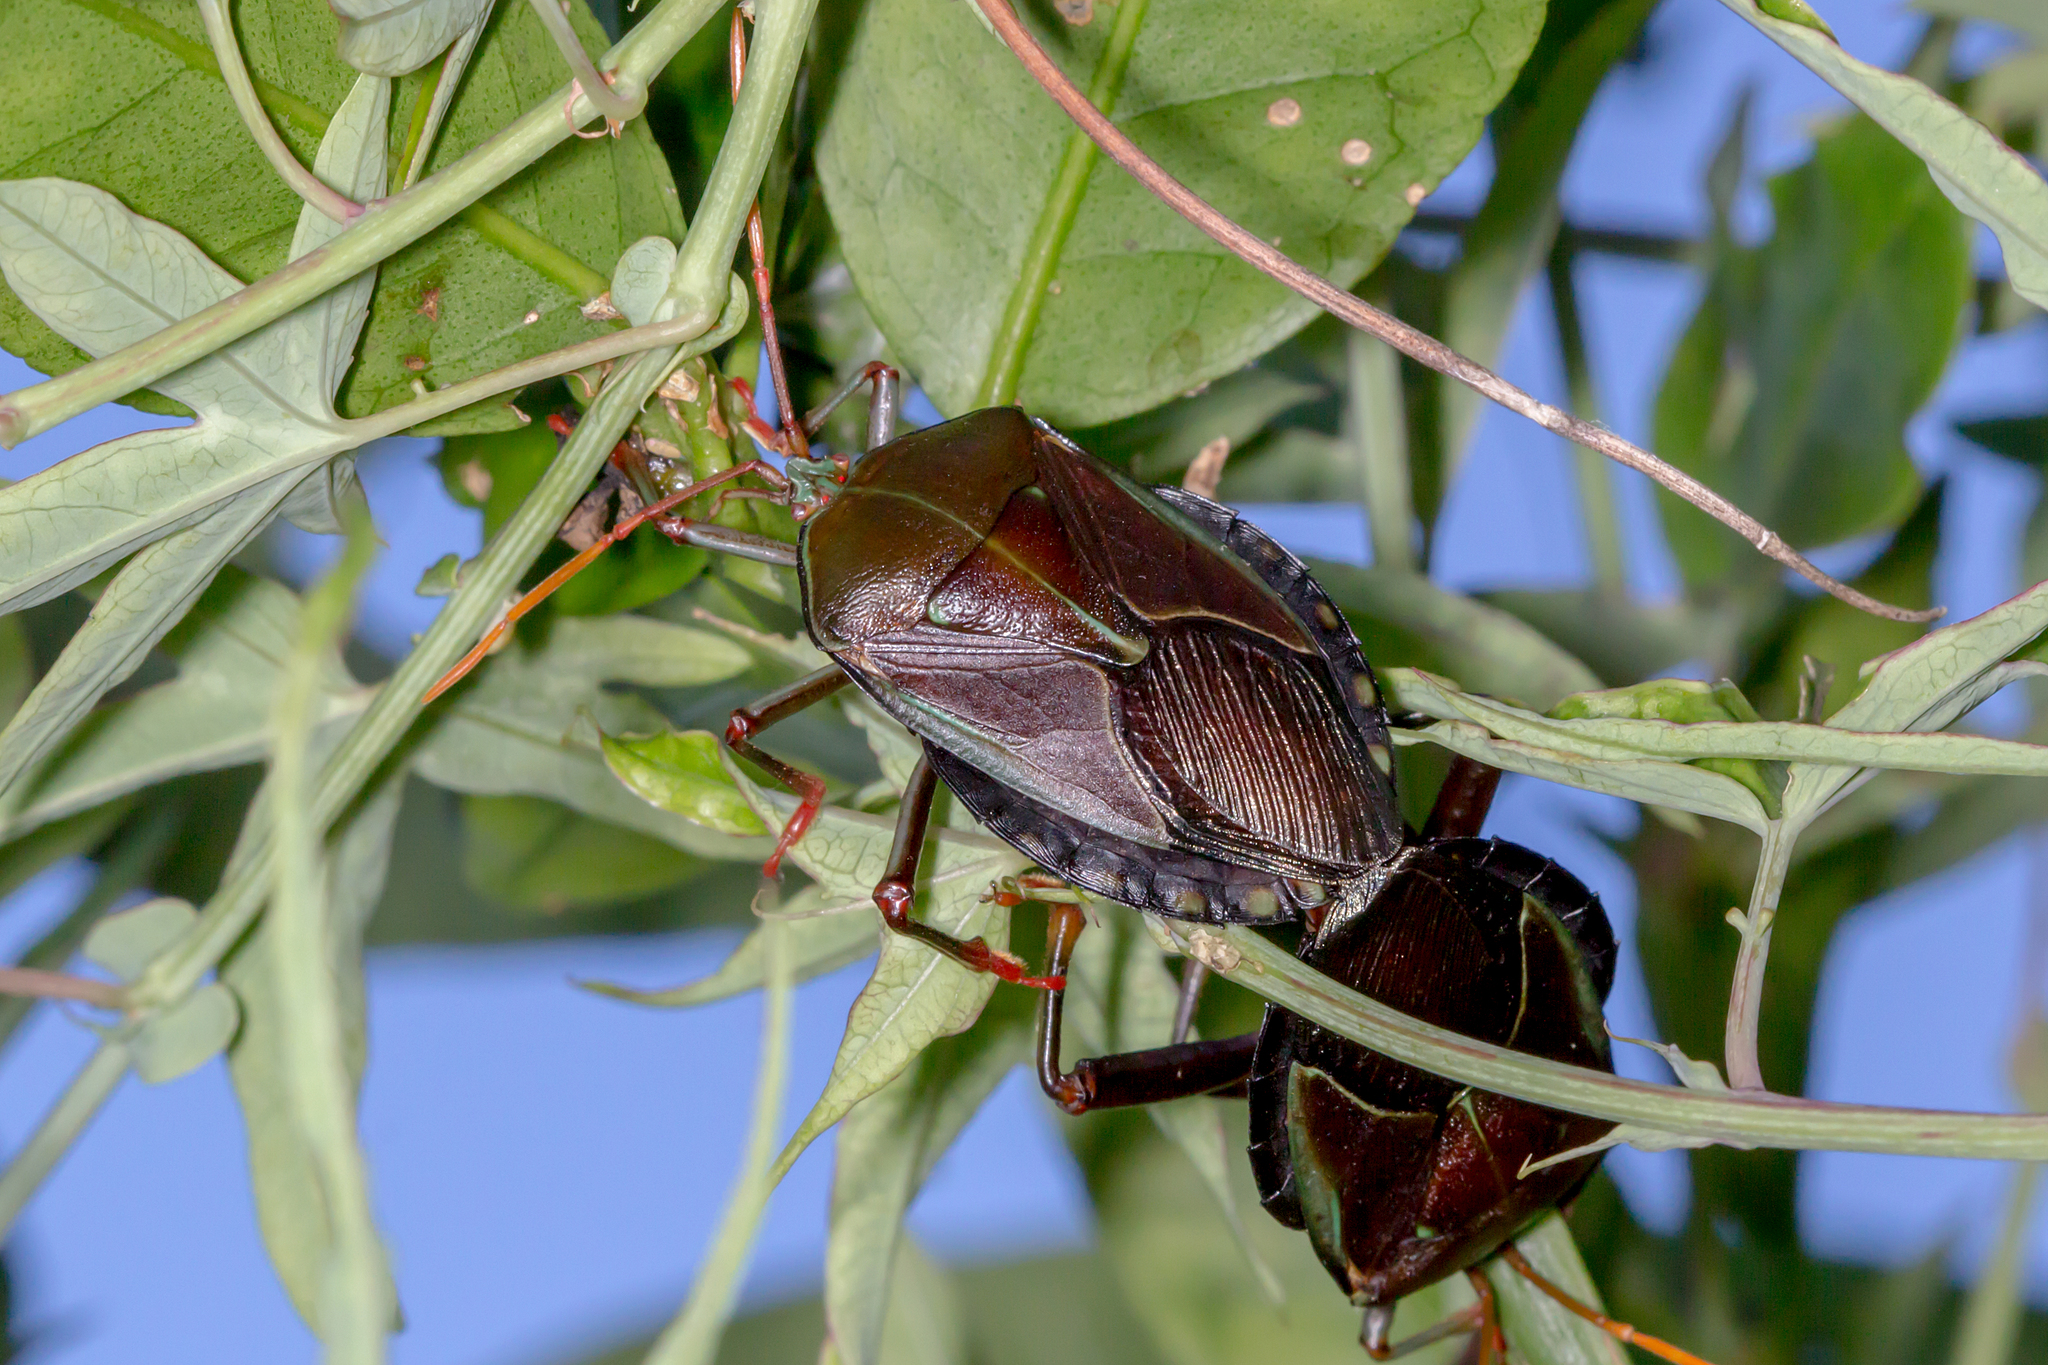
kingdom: Animalia
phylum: Arthropoda
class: Insecta
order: Hemiptera
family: Tessaratomidae
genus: Musgraveia
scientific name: Musgraveia sulciventris
